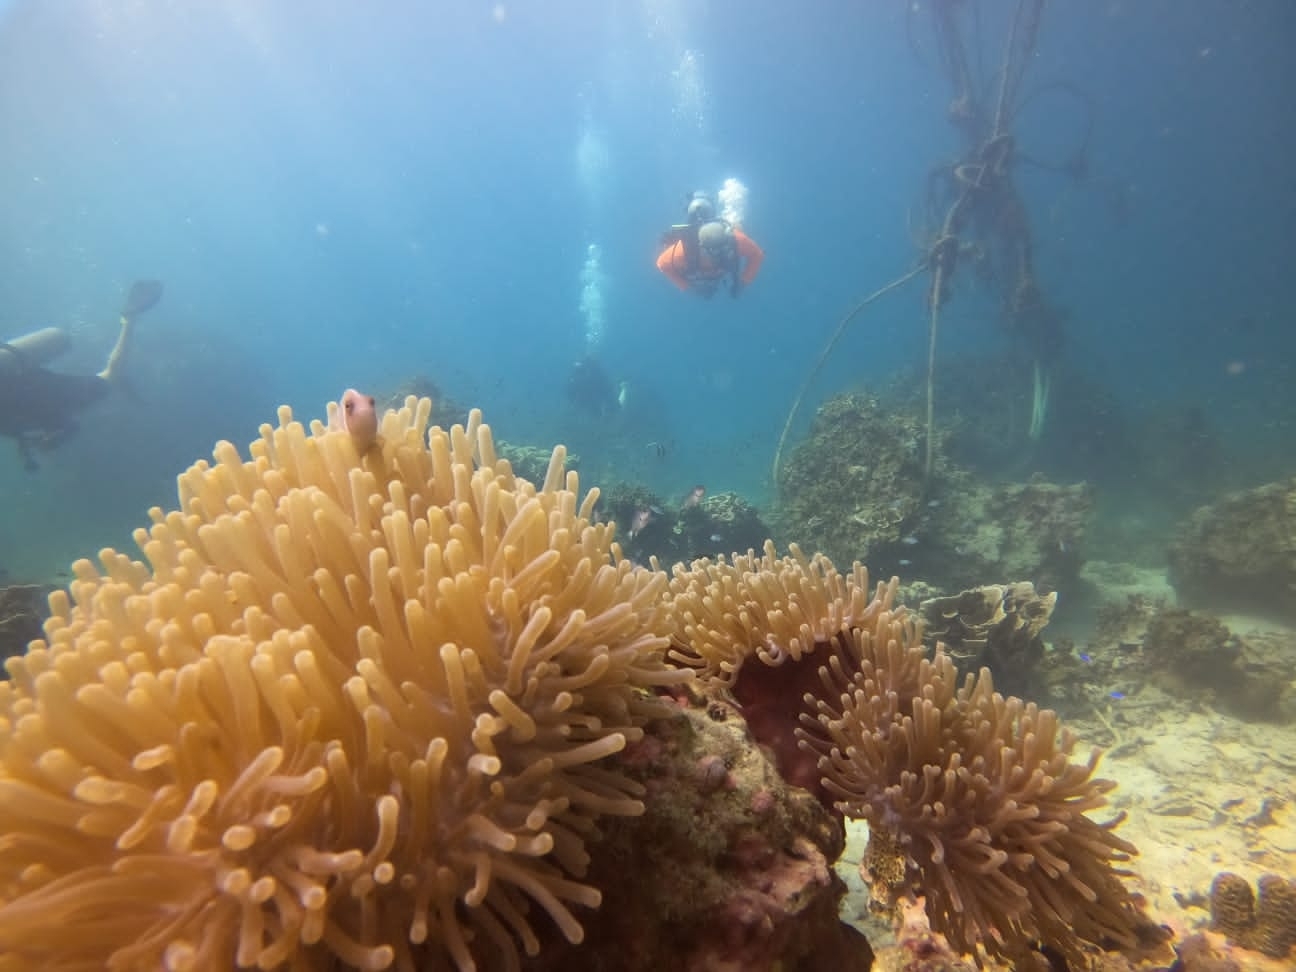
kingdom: Animalia
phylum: Cnidaria
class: Anthozoa
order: Actiniaria
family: Stichodactylidae
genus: Radianthus
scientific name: Radianthus magnifica
